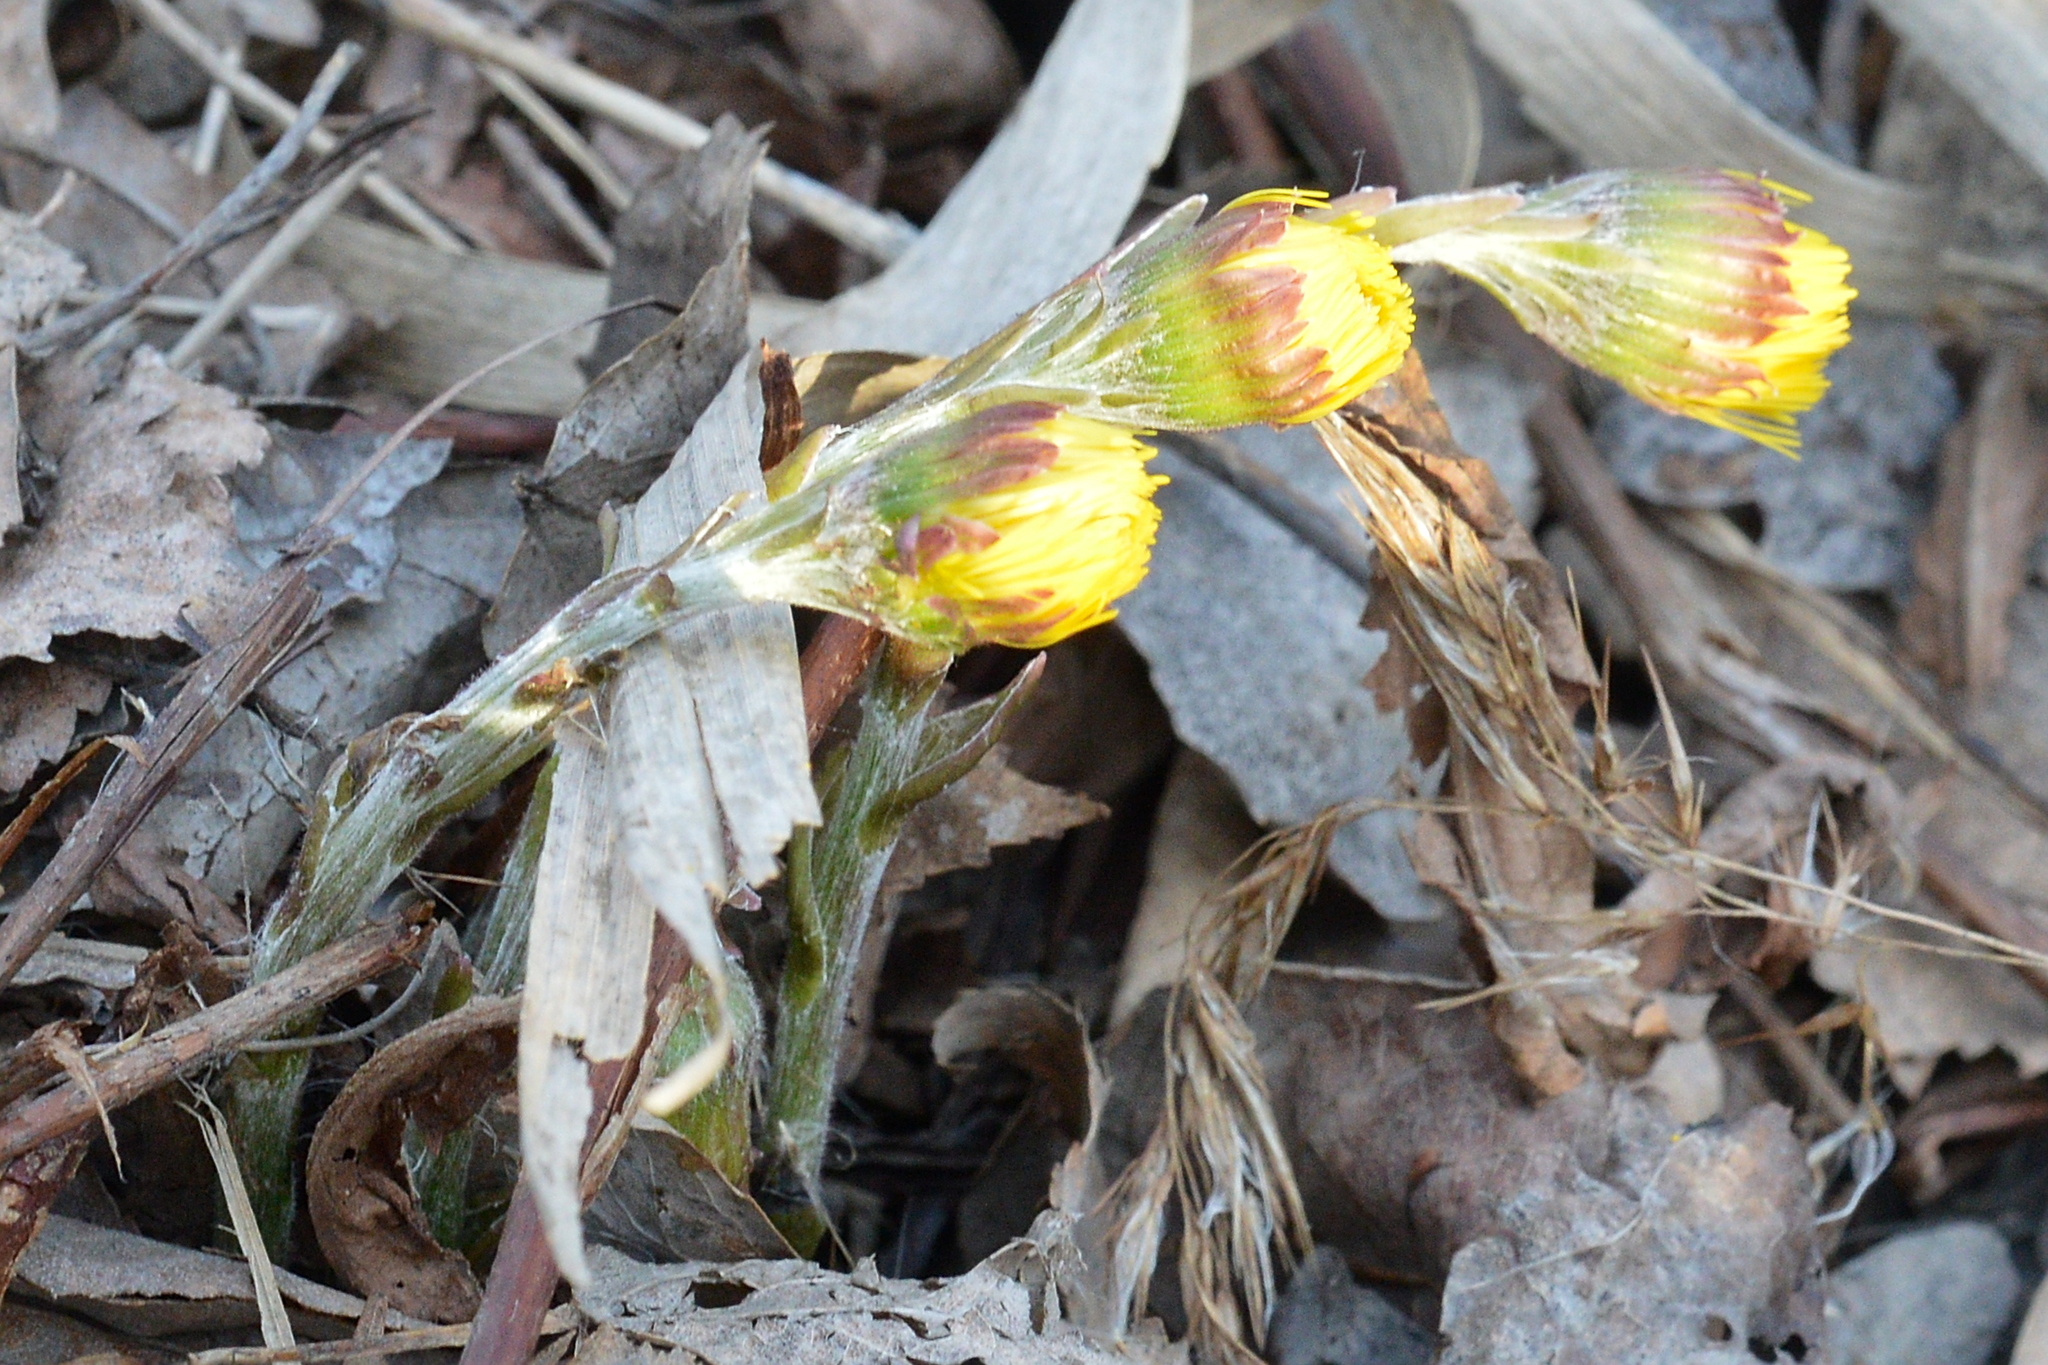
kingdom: Plantae
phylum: Tracheophyta
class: Magnoliopsida
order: Asterales
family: Asteraceae
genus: Tussilago
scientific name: Tussilago farfara
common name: Coltsfoot
